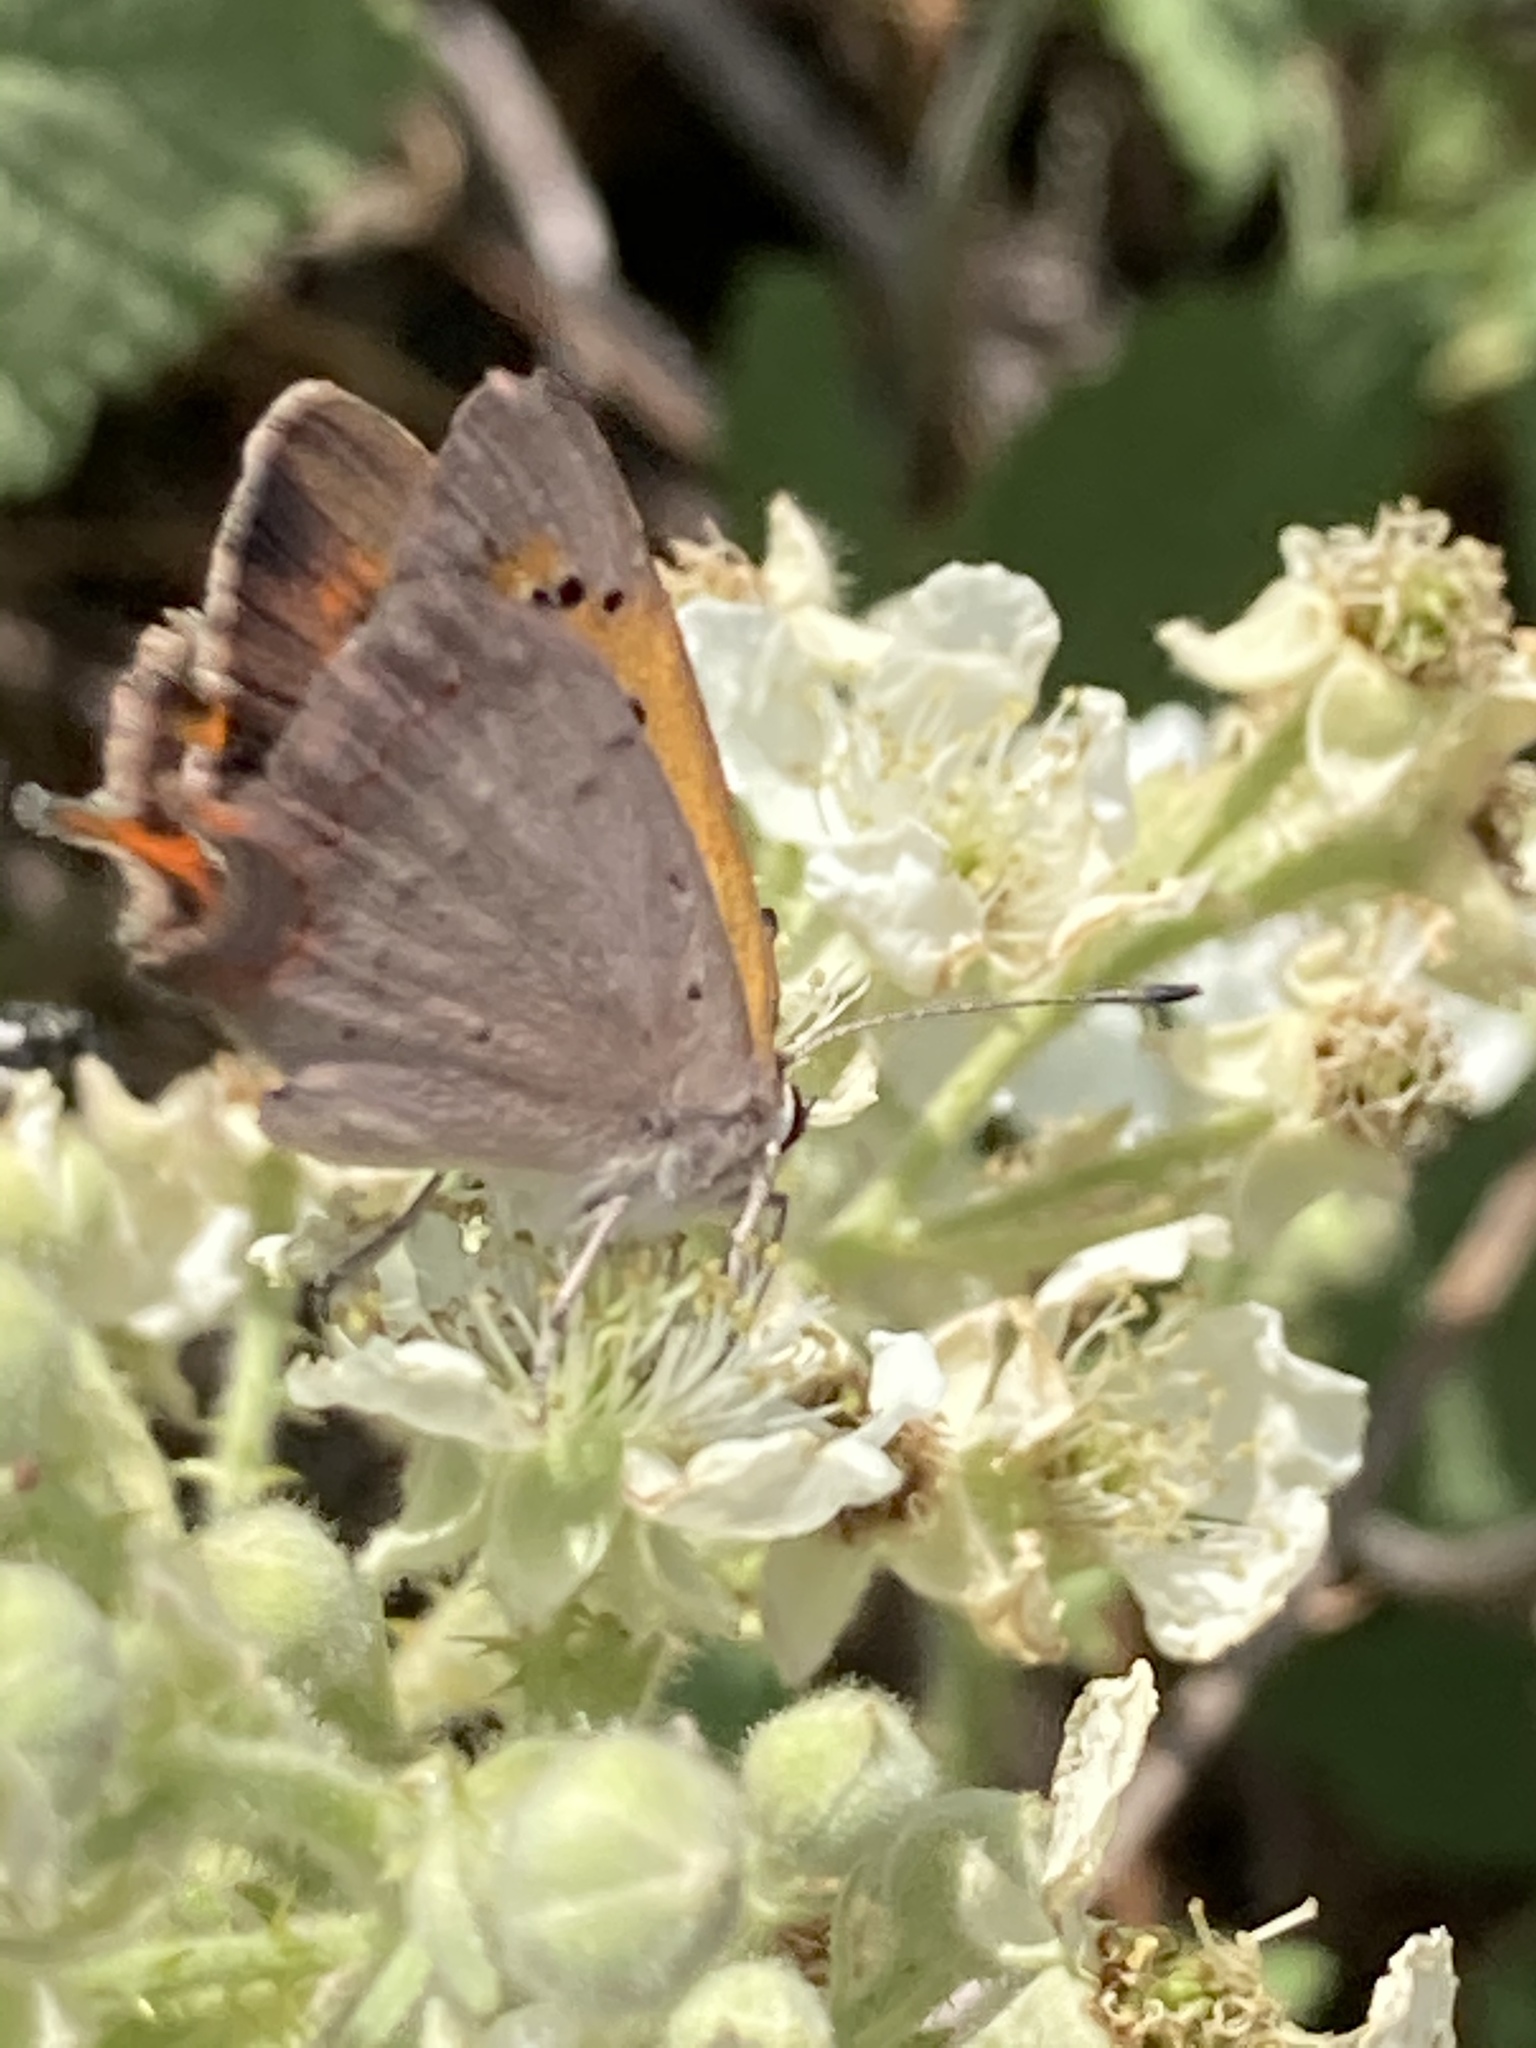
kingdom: Animalia
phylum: Arthropoda
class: Insecta
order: Lepidoptera
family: Lycaenidae
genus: Lycaena
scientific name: Lycaena phlaeas
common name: Small copper
